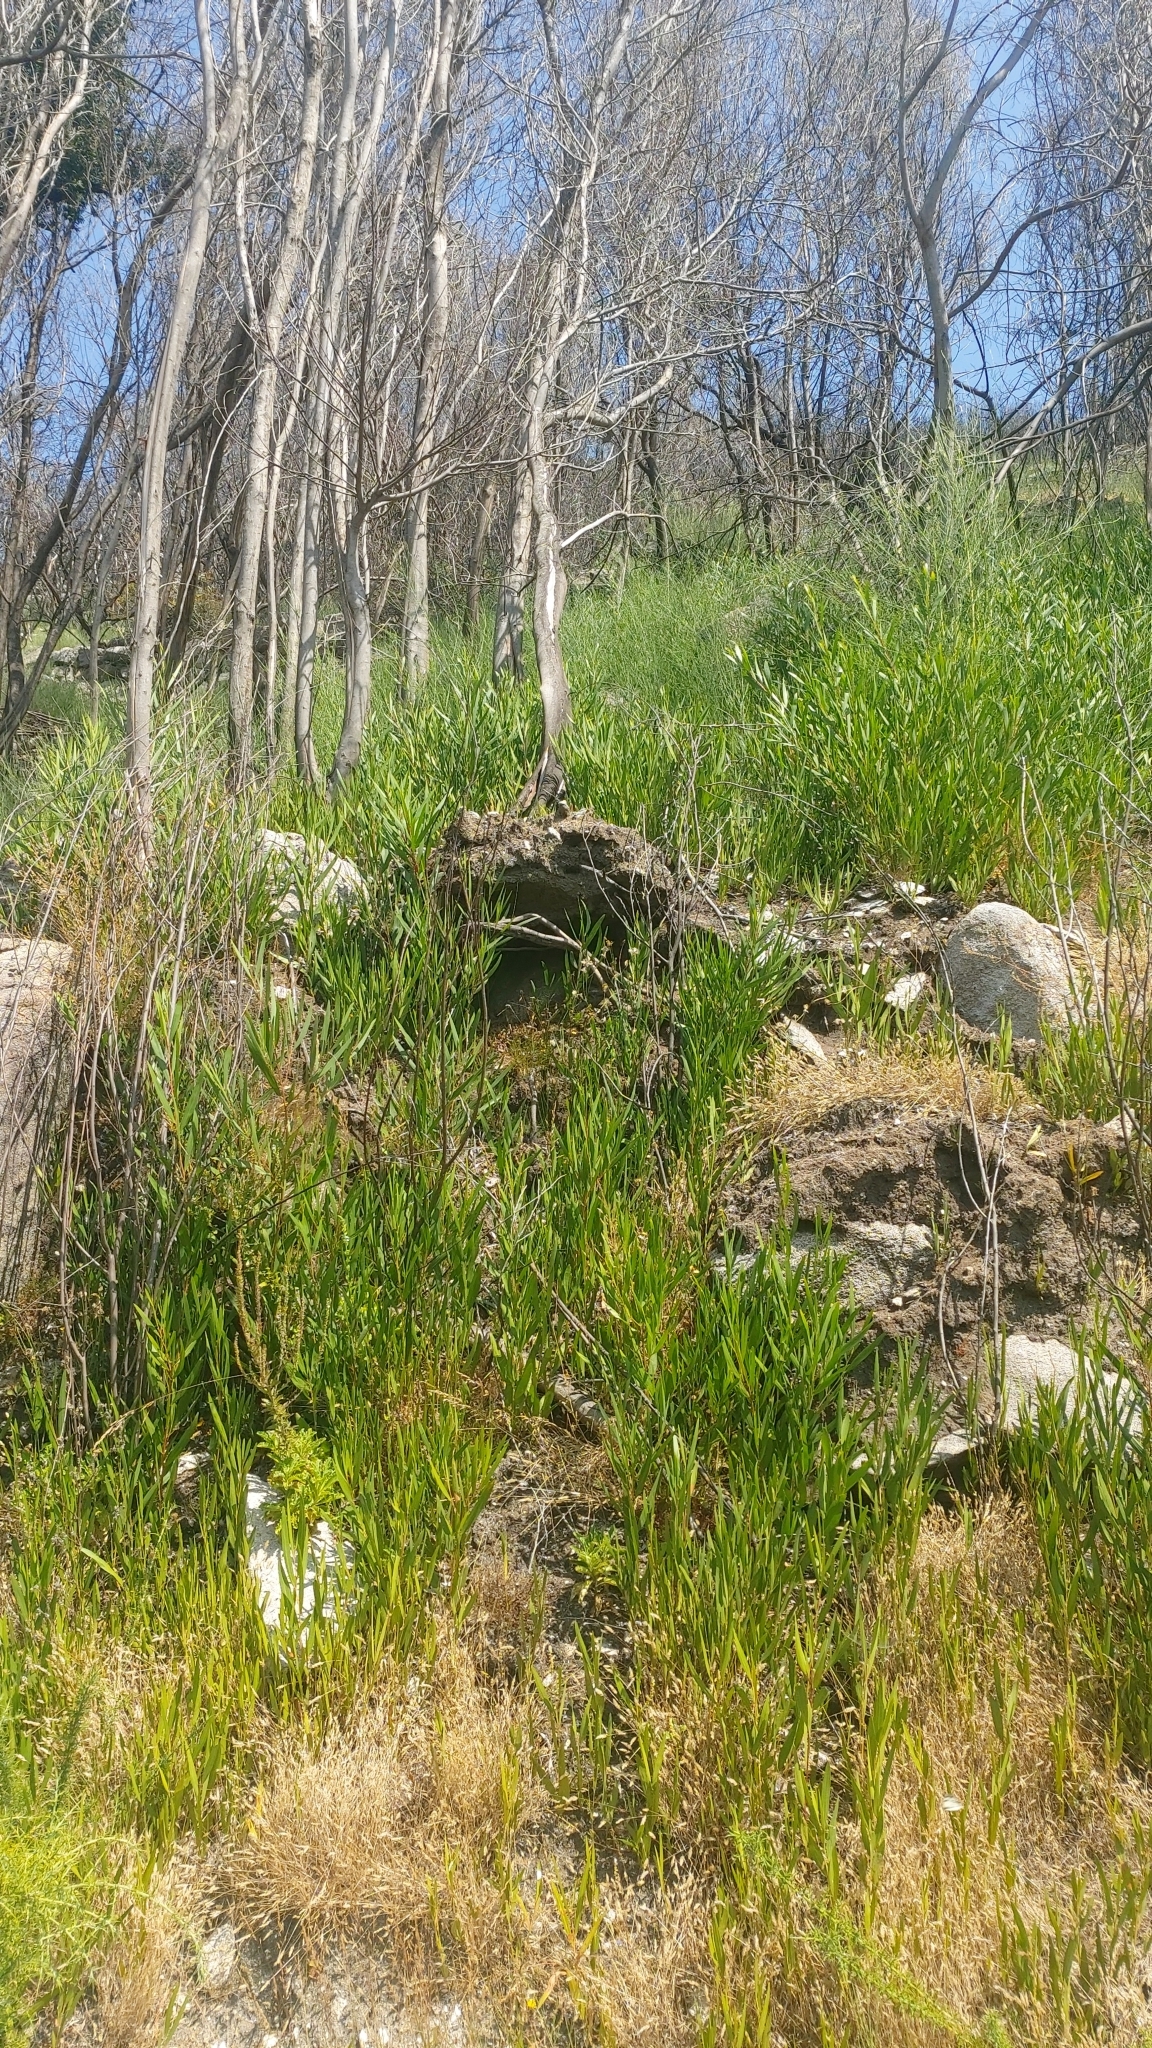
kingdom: Plantae
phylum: Tracheophyta
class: Magnoliopsida
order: Fabales
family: Fabaceae
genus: Acacia
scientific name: Acacia longifolia
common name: Sydney golden wattle
